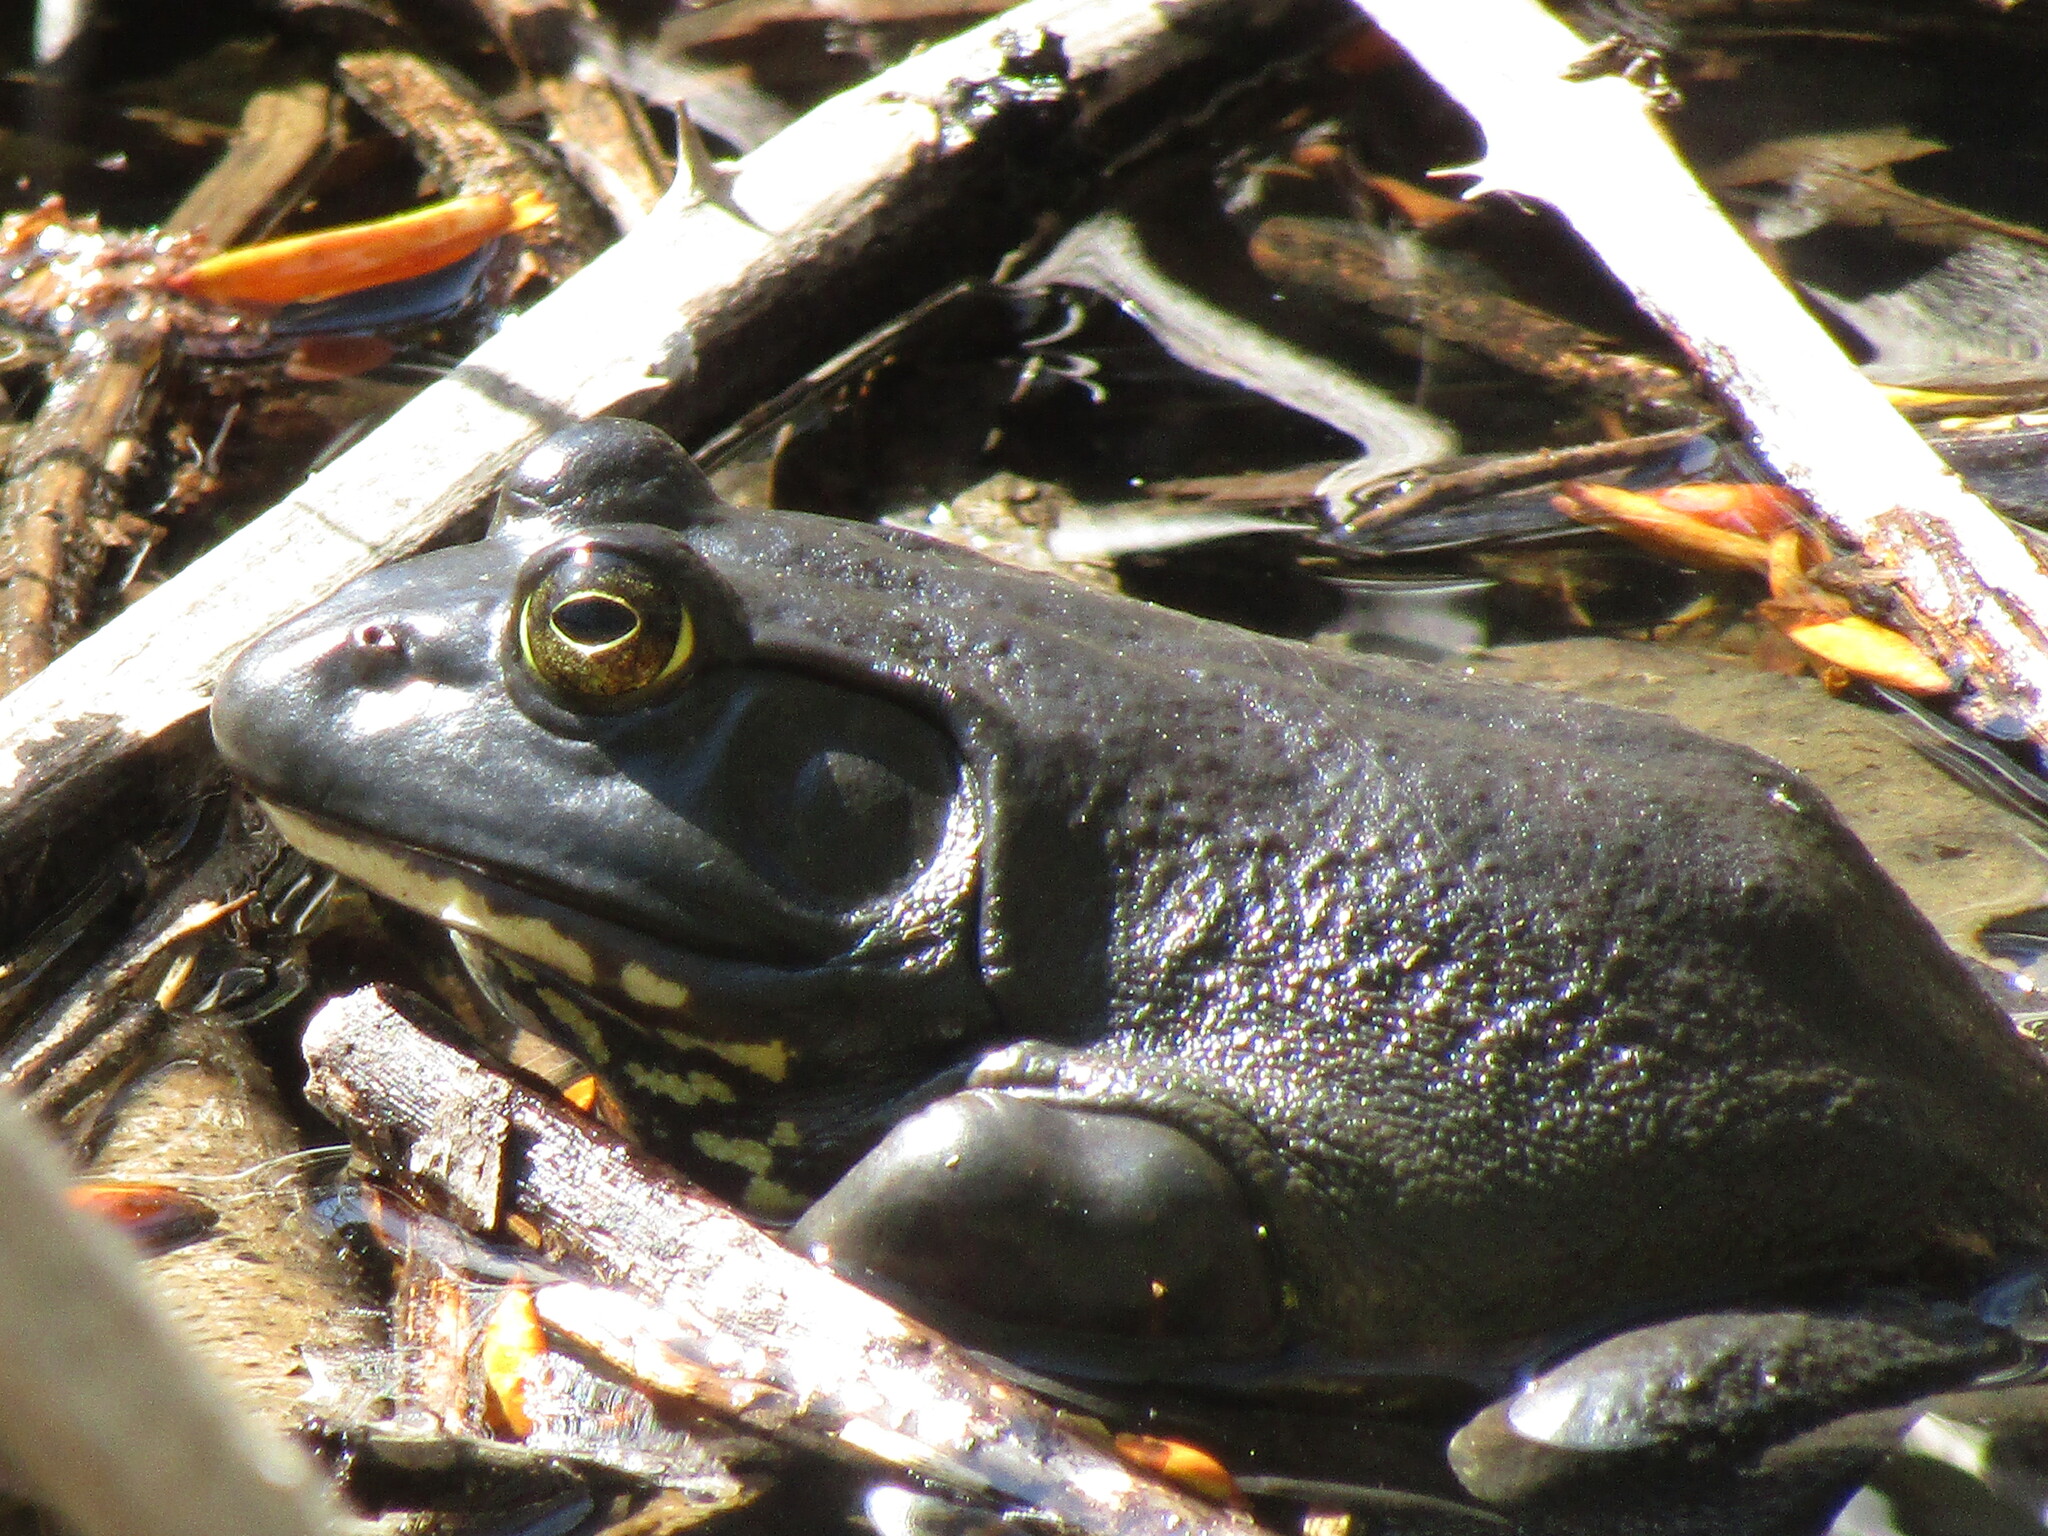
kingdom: Animalia
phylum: Chordata
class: Amphibia
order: Anura
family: Ranidae
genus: Lithobates
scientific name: Lithobates catesbeianus
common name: American bullfrog
